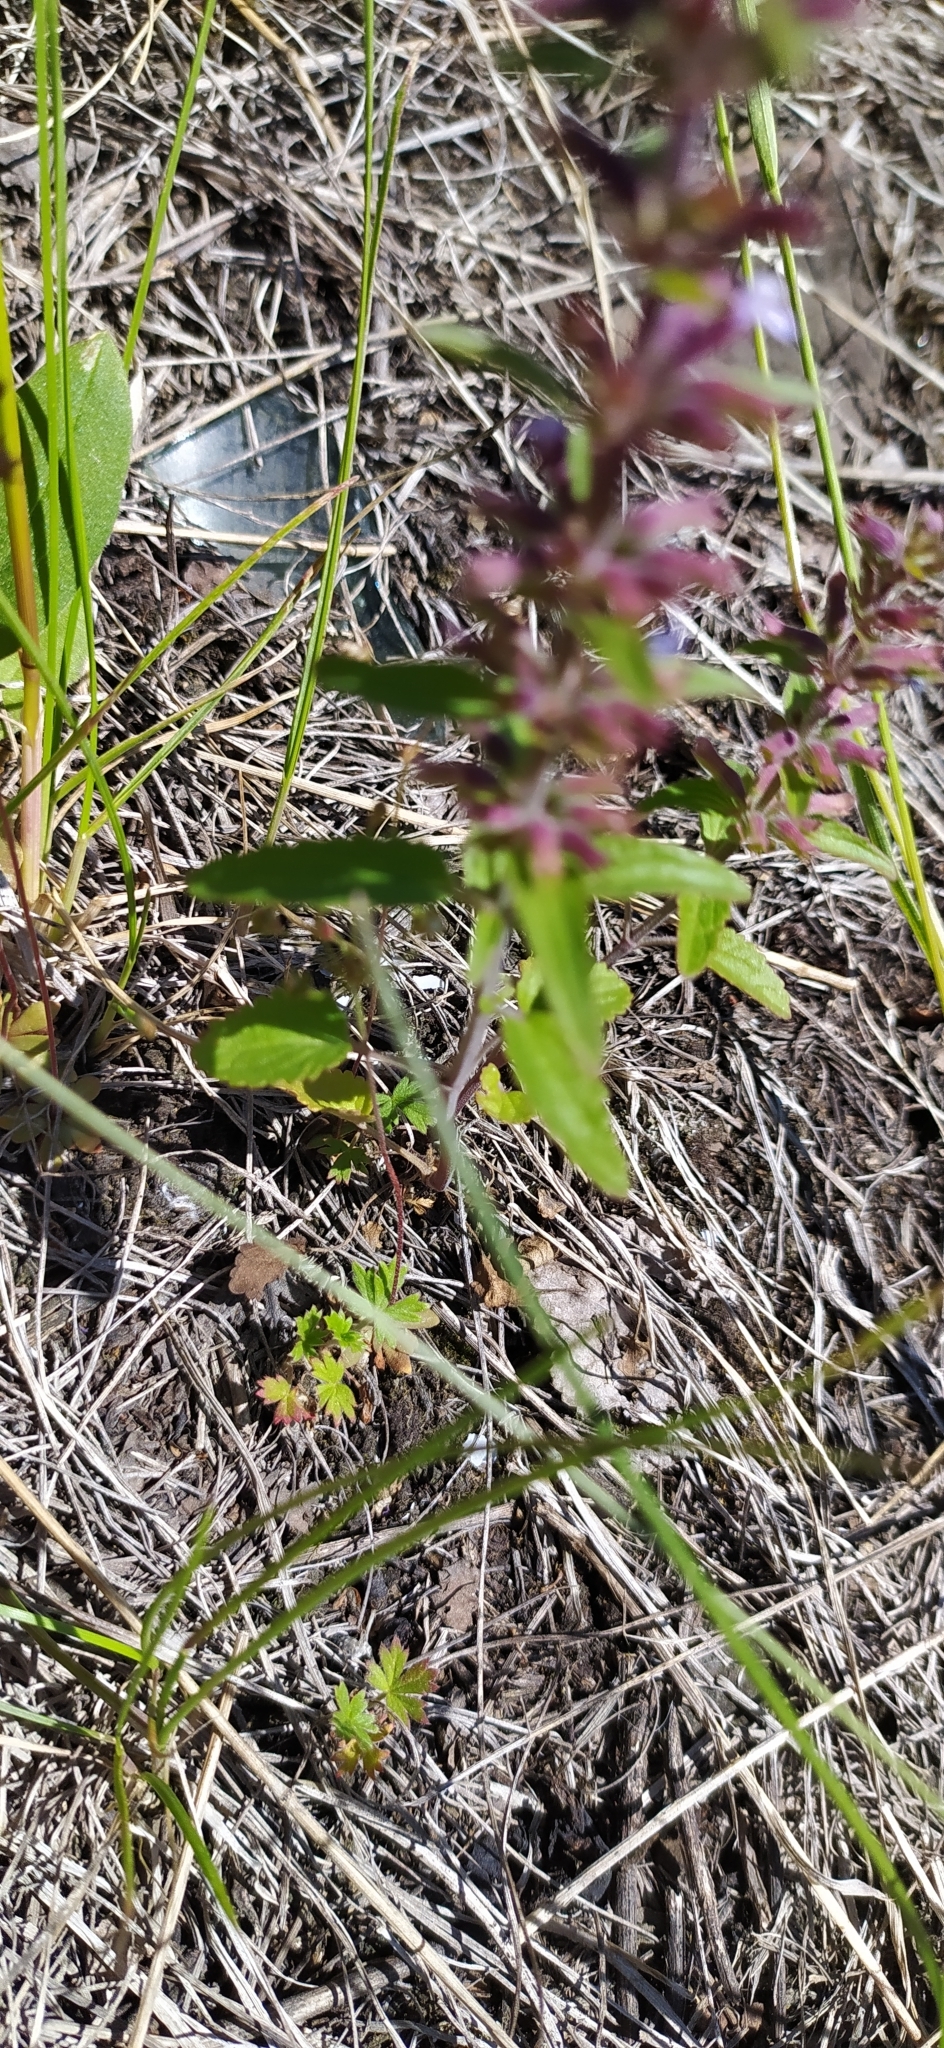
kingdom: Plantae
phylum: Tracheophyta
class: Magnoliopsida
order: Lamiales
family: Lamiaceae
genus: Dracocephalum
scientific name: Dracocephalum thymiflorum
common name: Thymeleaf dragonhead
